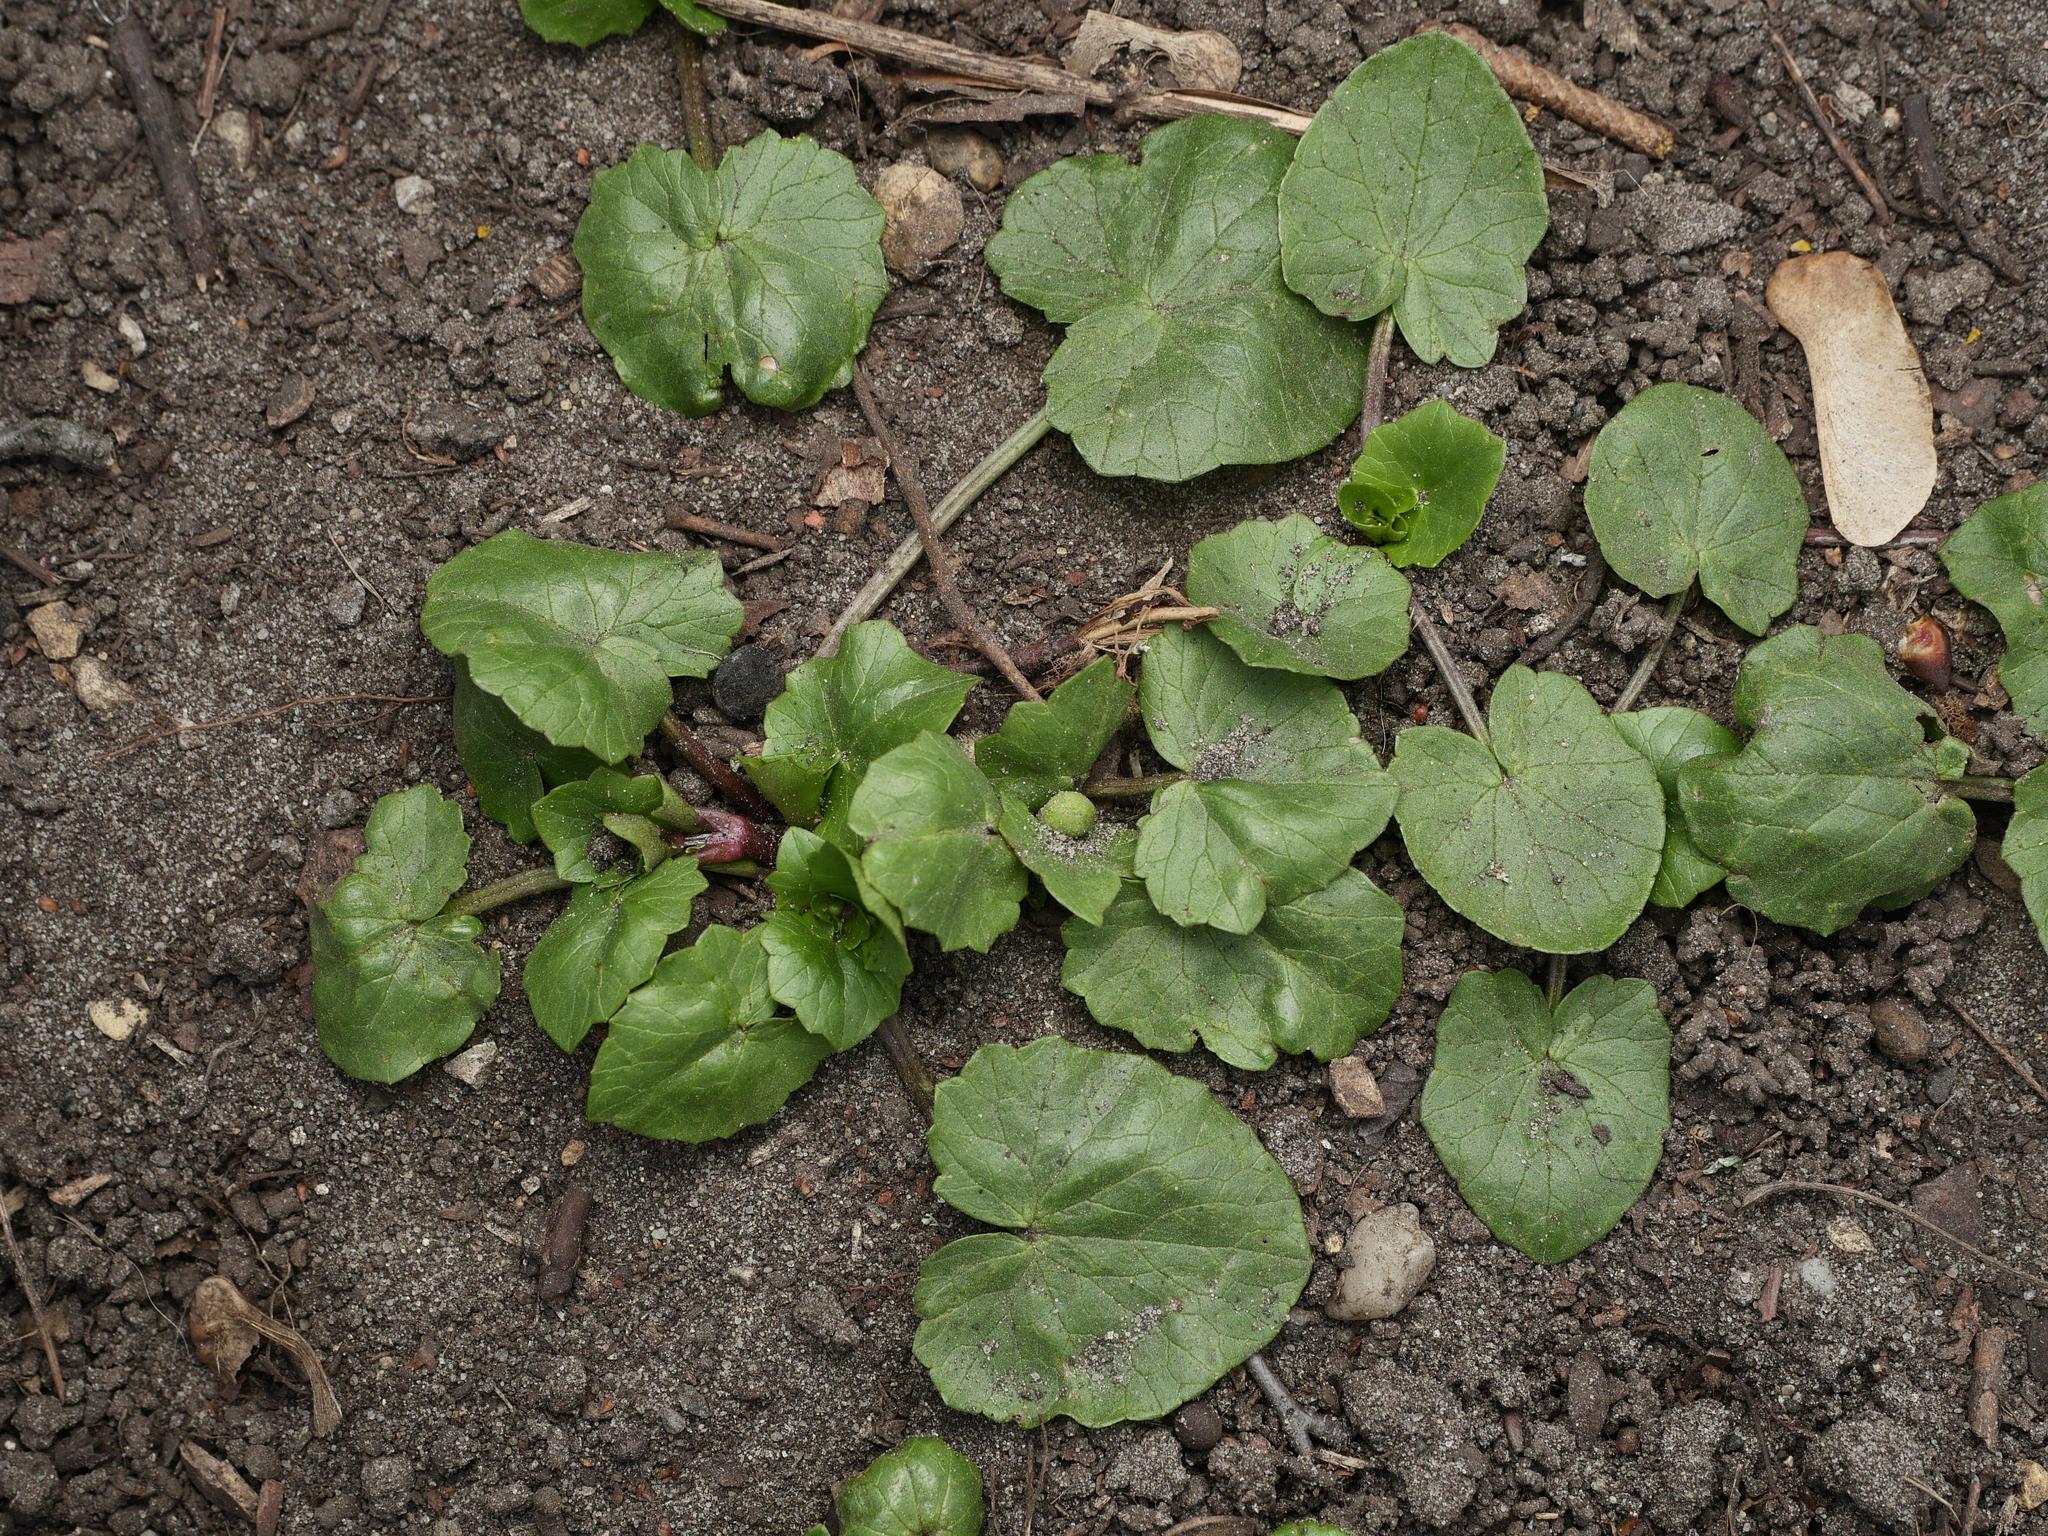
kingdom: Plantae
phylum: Tracheophyta
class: Magnoliopsida
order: Ranunculales
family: Ranunculaceae
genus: Ficaria
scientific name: Ficaria verna
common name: Lesser celandine
